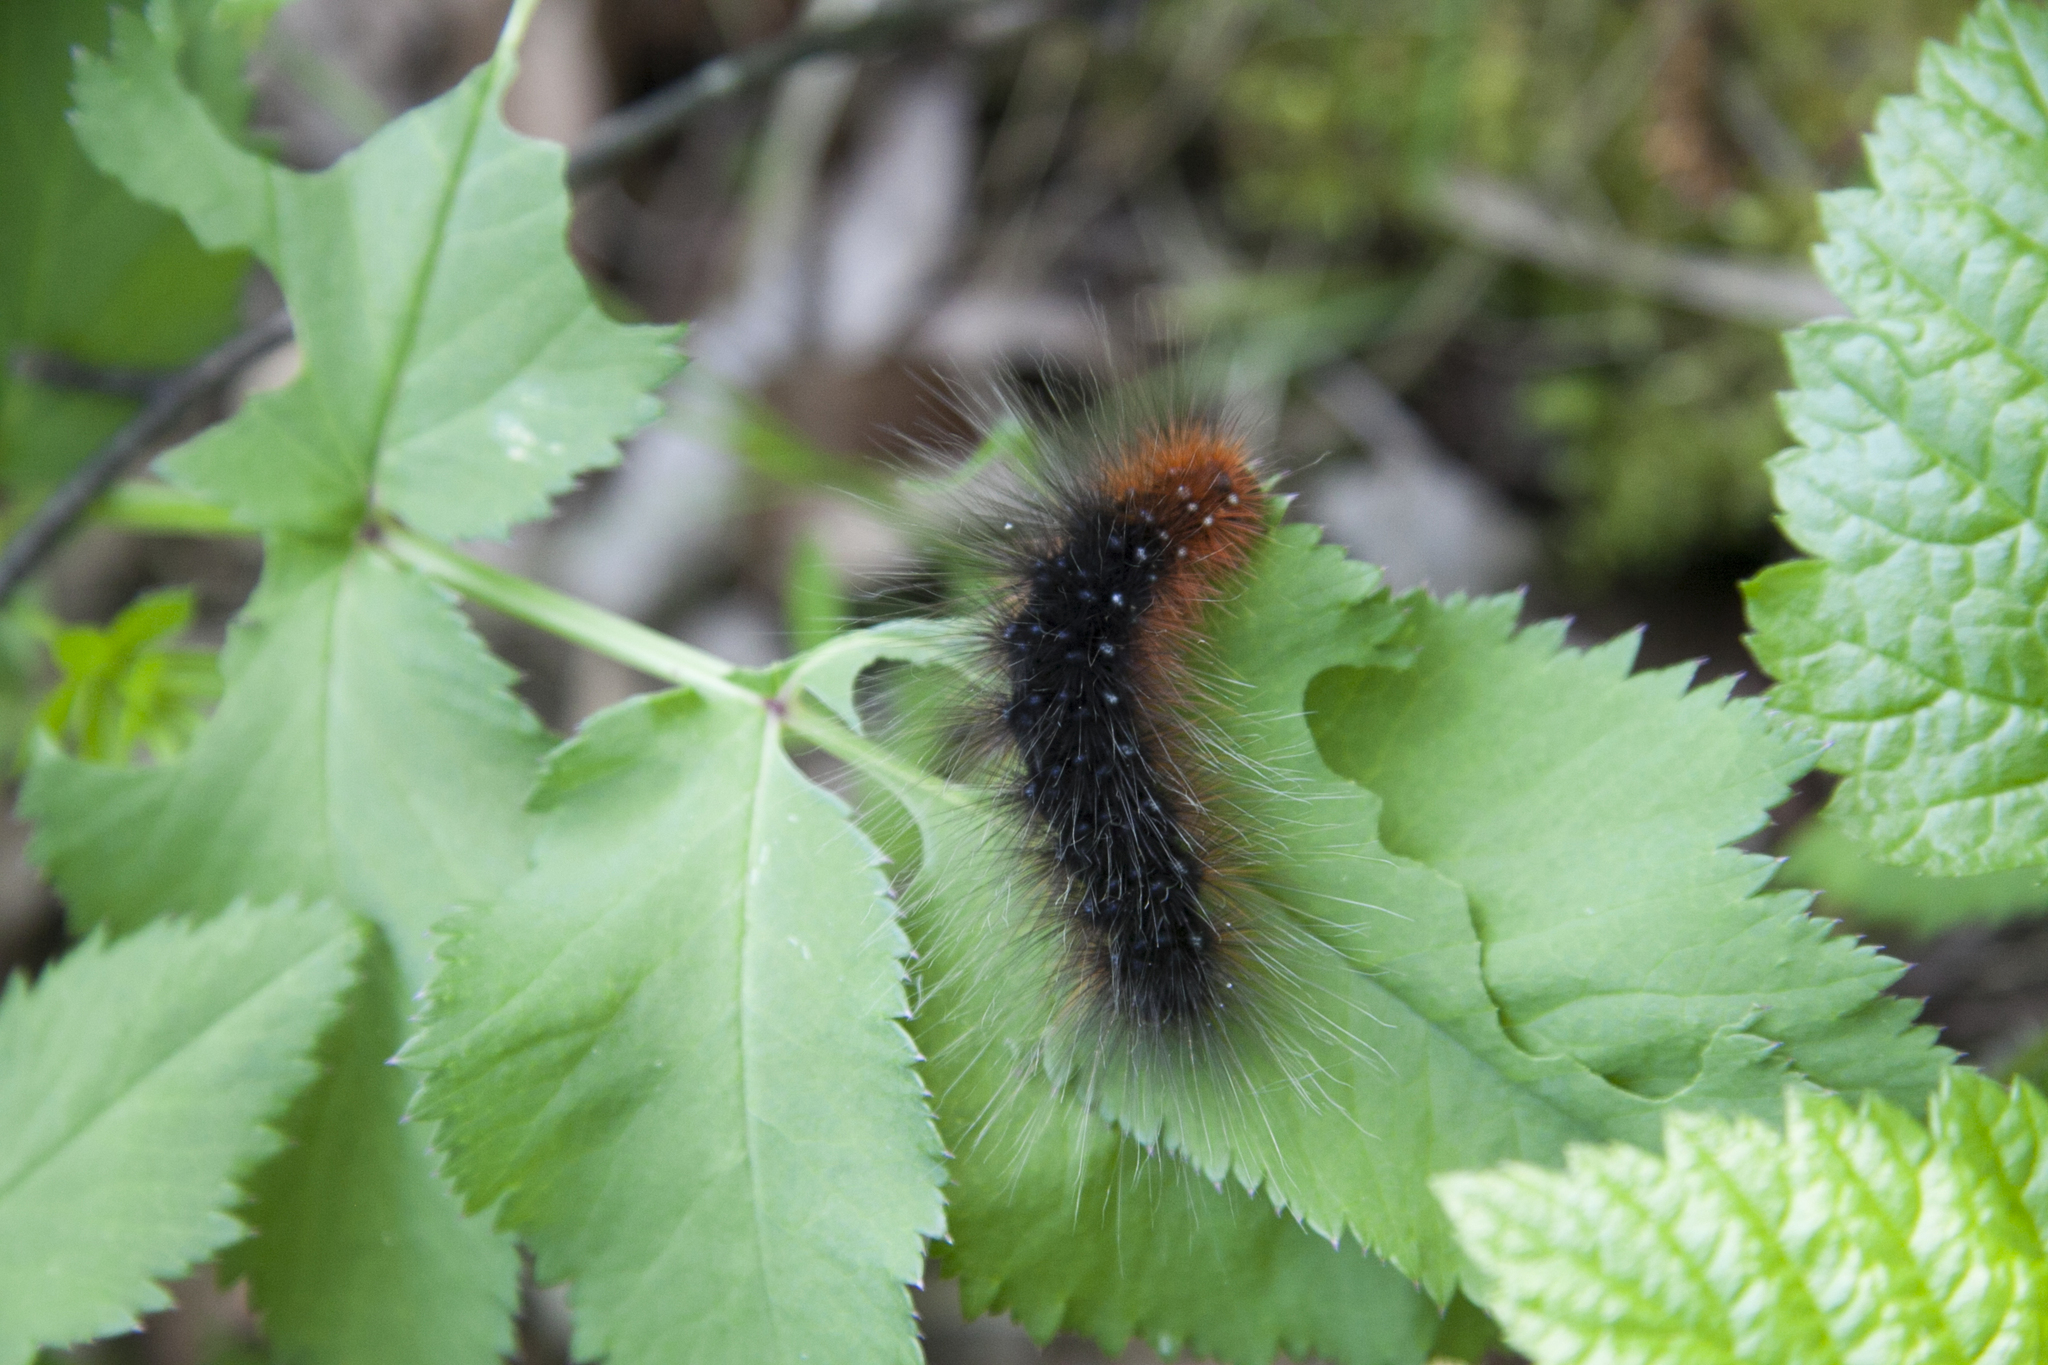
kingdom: Animalia
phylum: Arthropoda
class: Insecta
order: Lepidoptera
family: Erebidae
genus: Arctia
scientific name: Arctia caja
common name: Garden tiger
